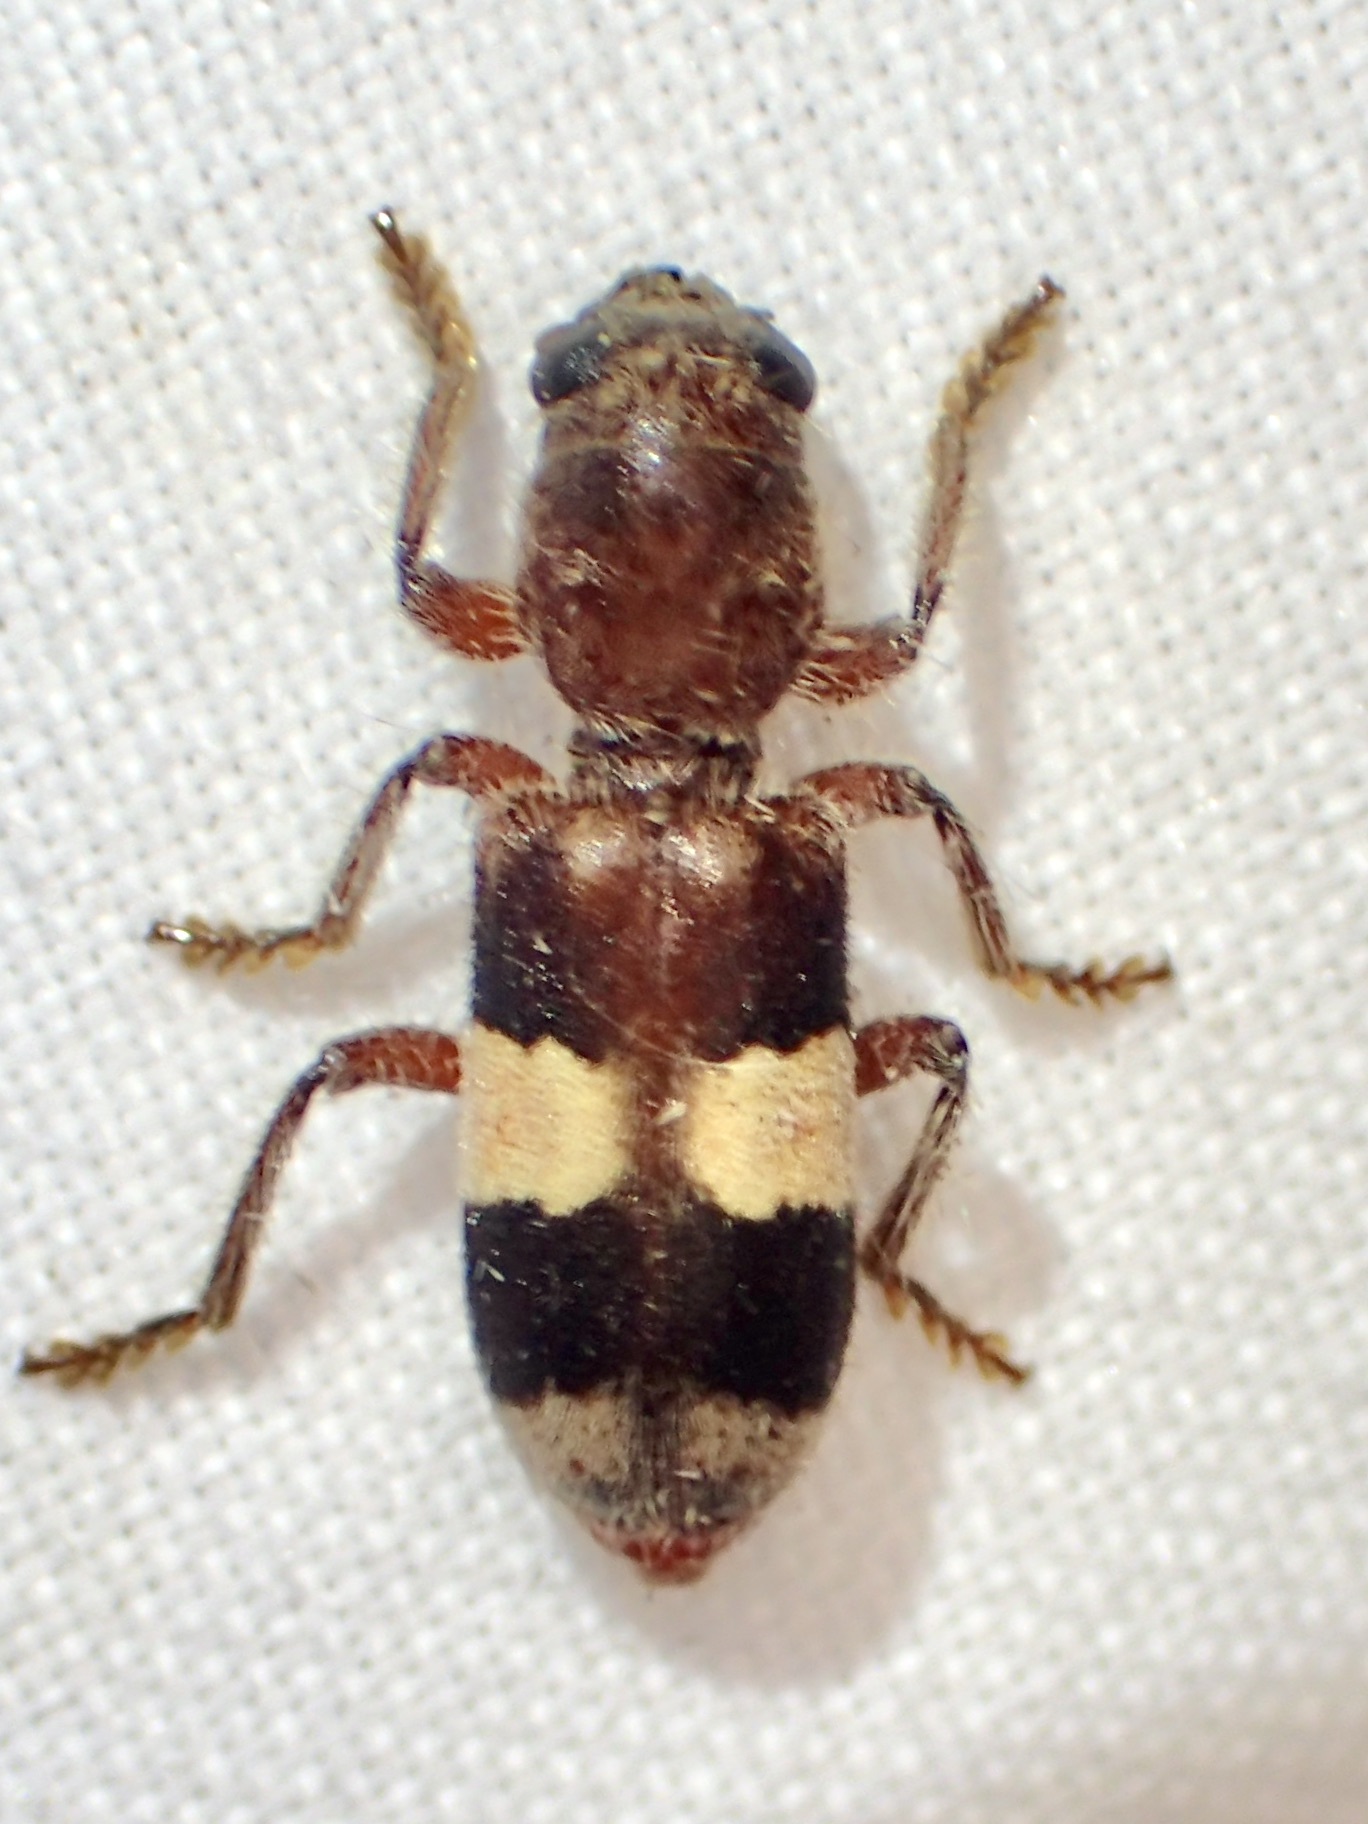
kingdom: Animalia
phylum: Arthropoda
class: Insecta
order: Coleoptera
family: Cleridae
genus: Enoclerus
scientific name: Enoclerus quadrisignatus
